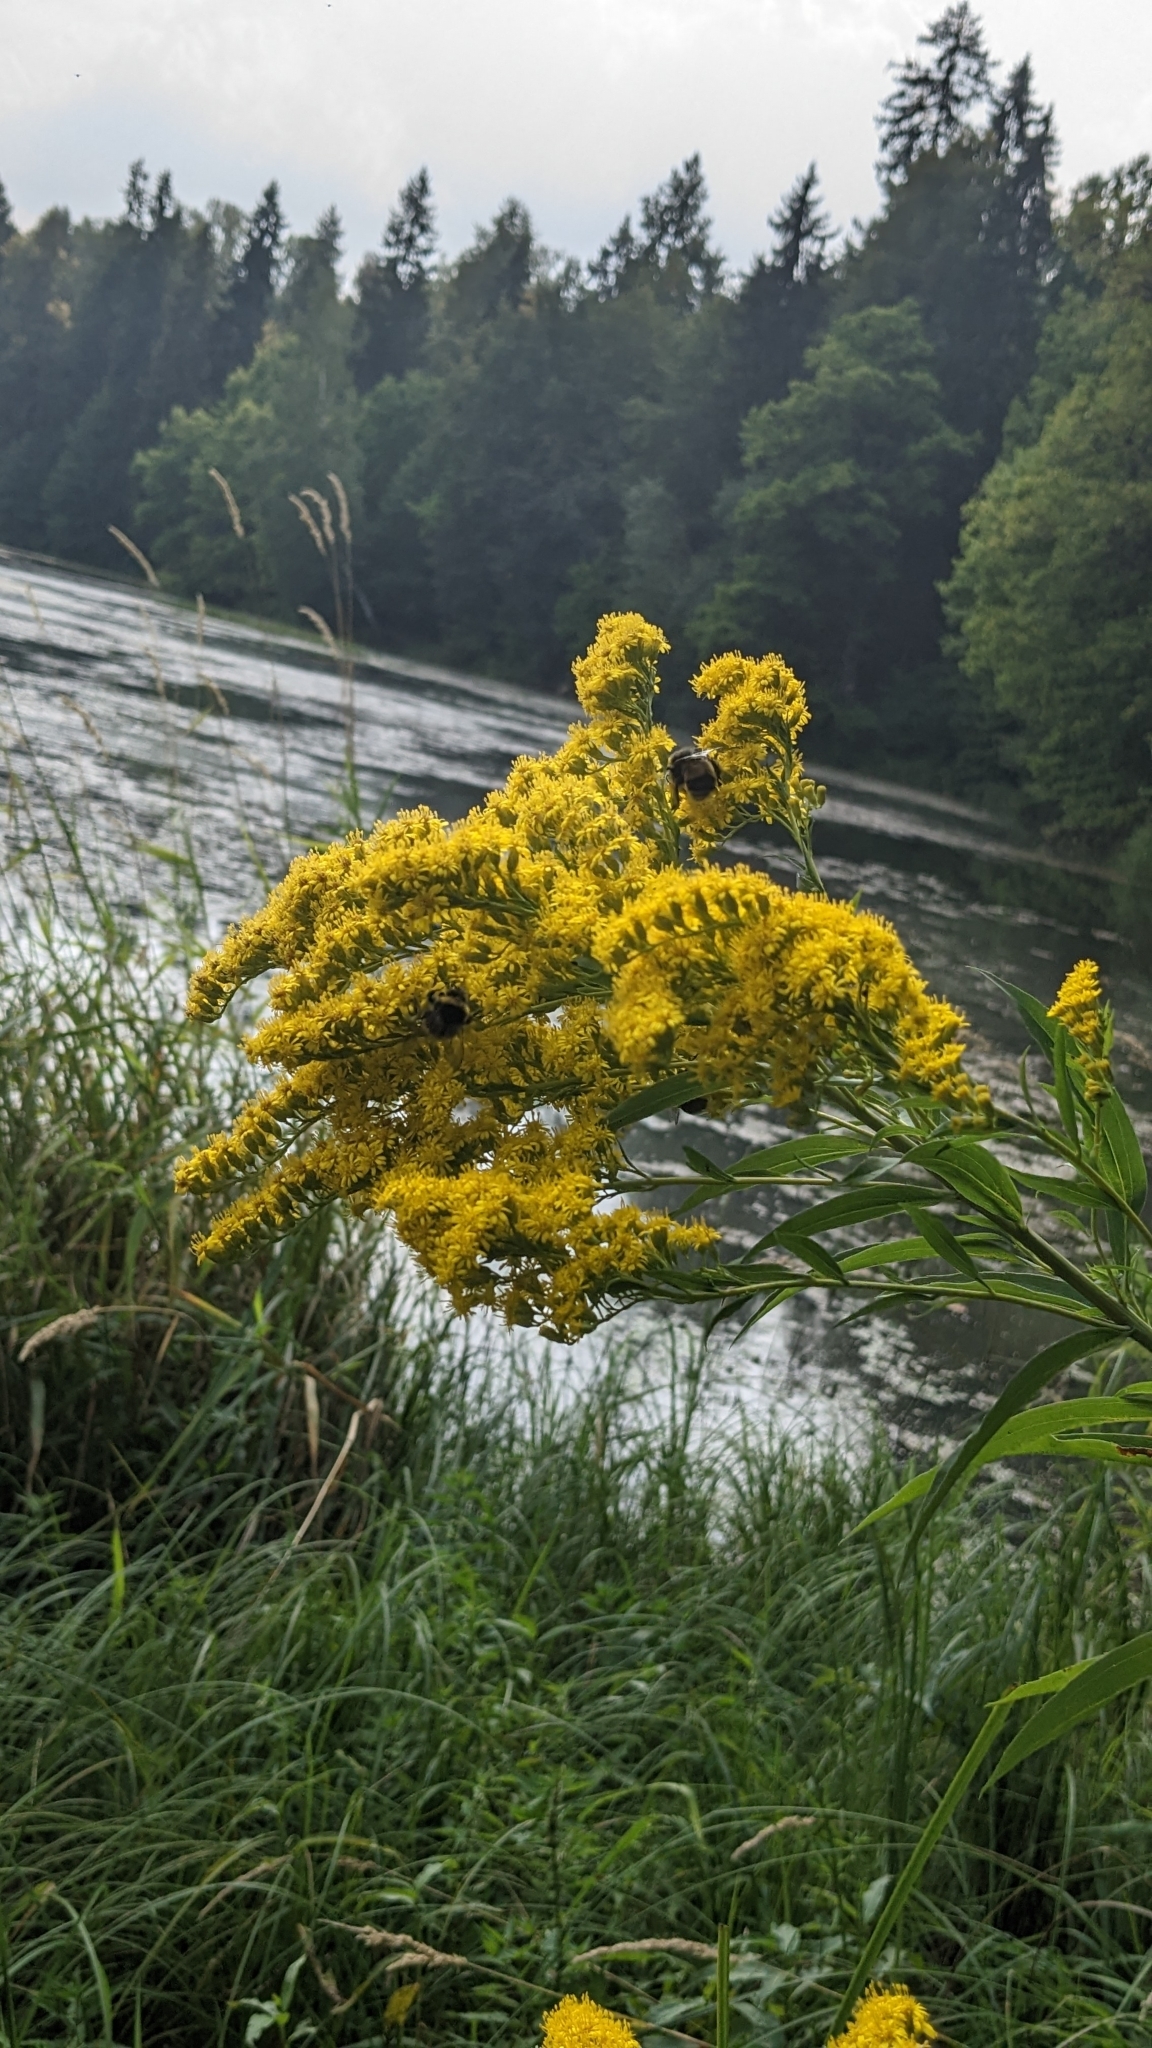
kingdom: Plantae
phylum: Tracheophyta
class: Magnoliopsida
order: Asterales
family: Asteraceae
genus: Solidago
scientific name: Solidago gigantea
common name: Giant goldenrod
